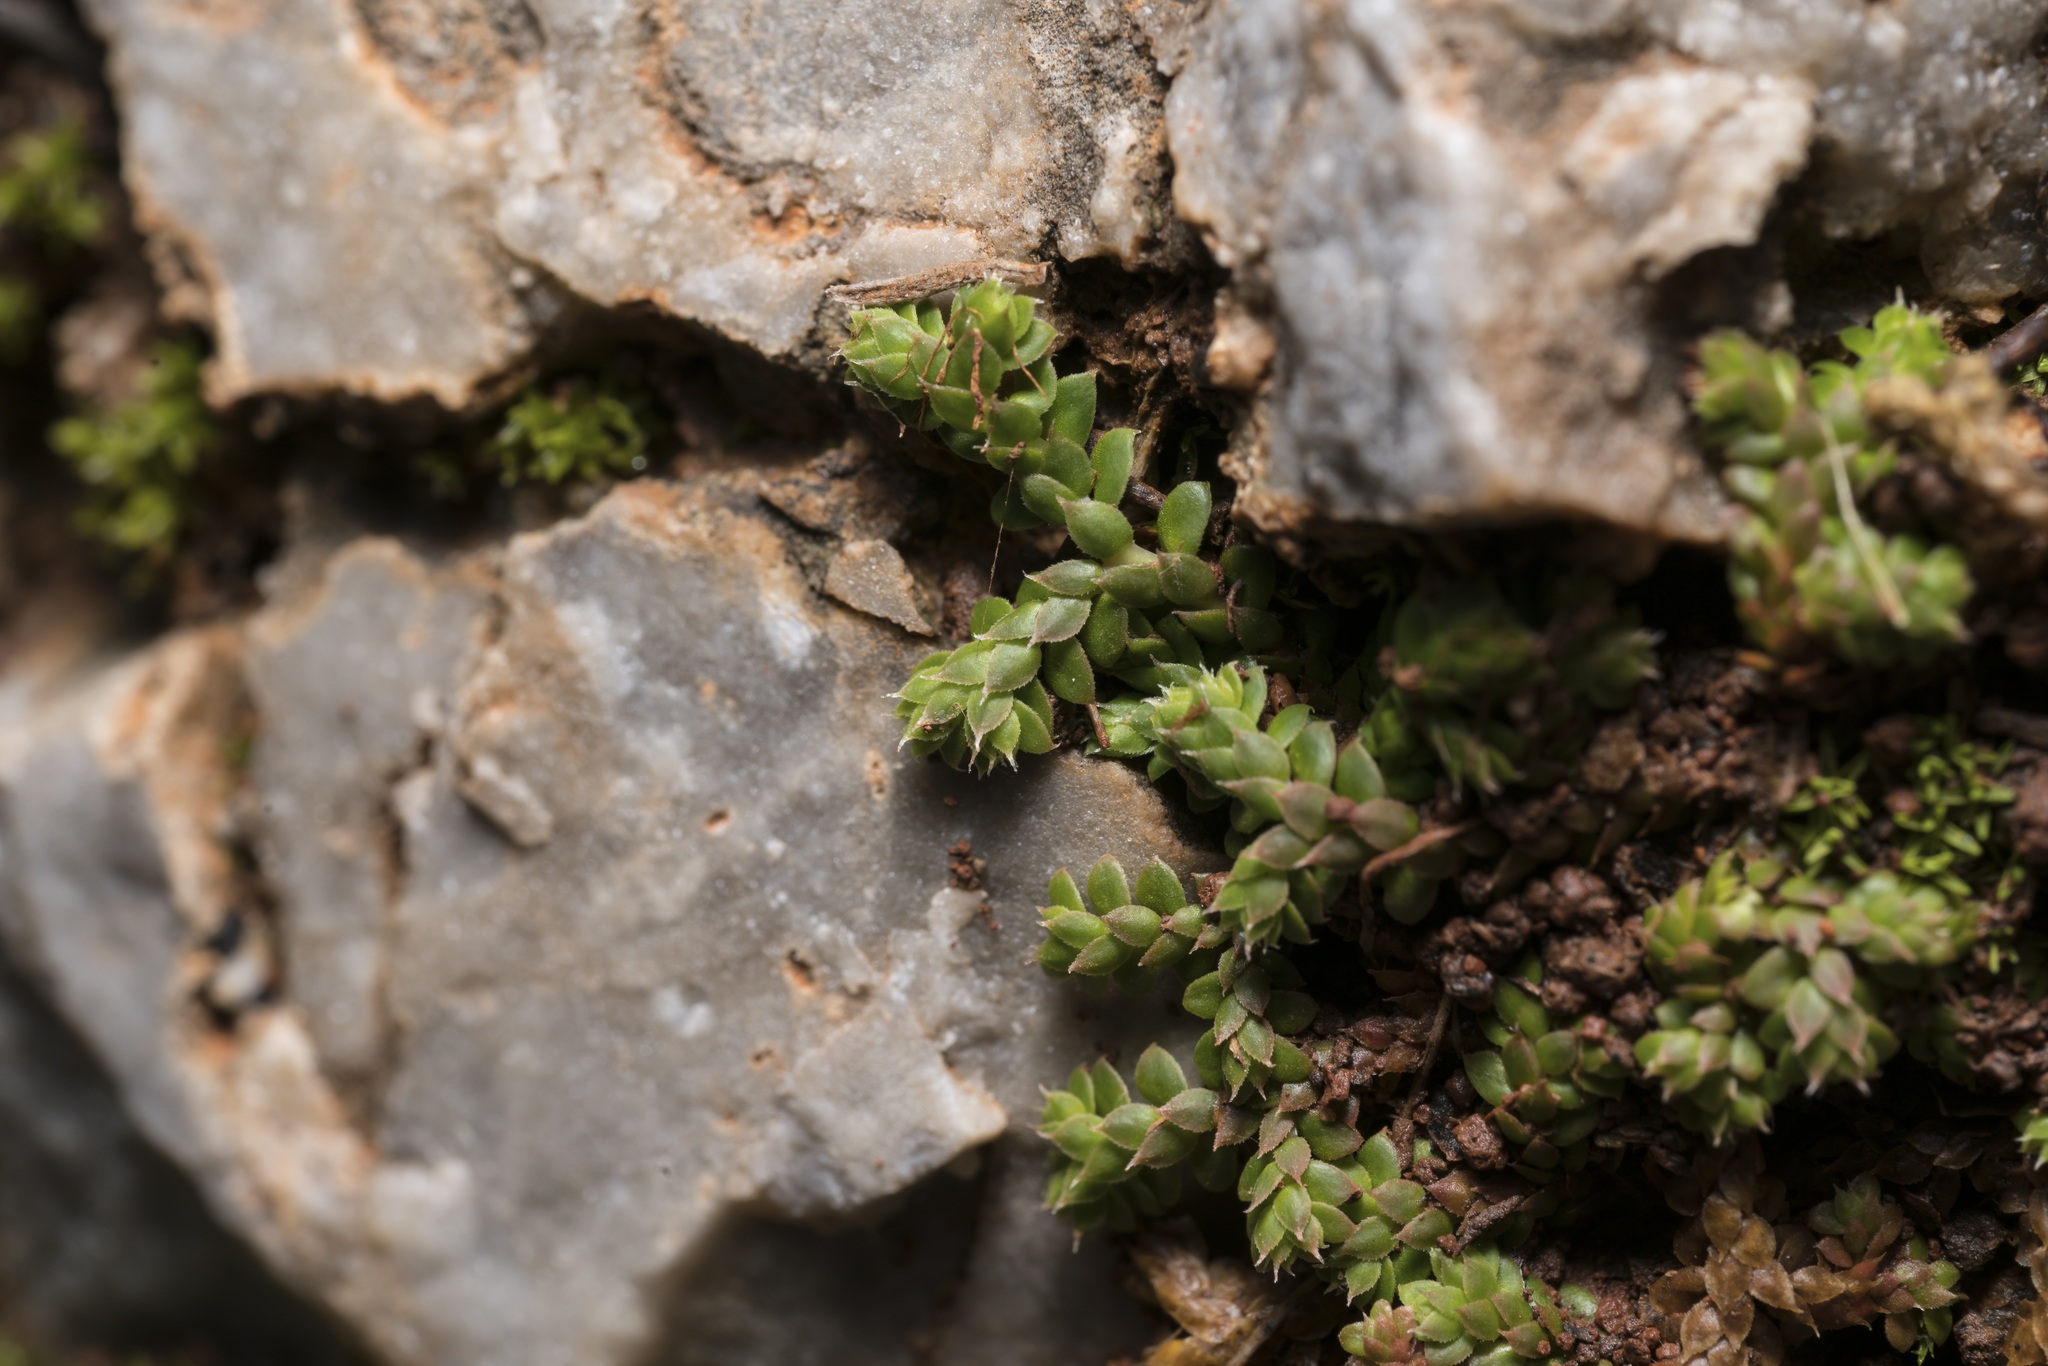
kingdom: Plantae
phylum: Tracheophyta
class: Lycopodiopsida
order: Selaginellales
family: Selaginellaceae
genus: Selaginella
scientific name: Selaginella denticulata
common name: Toothed-leaved clubmoss
